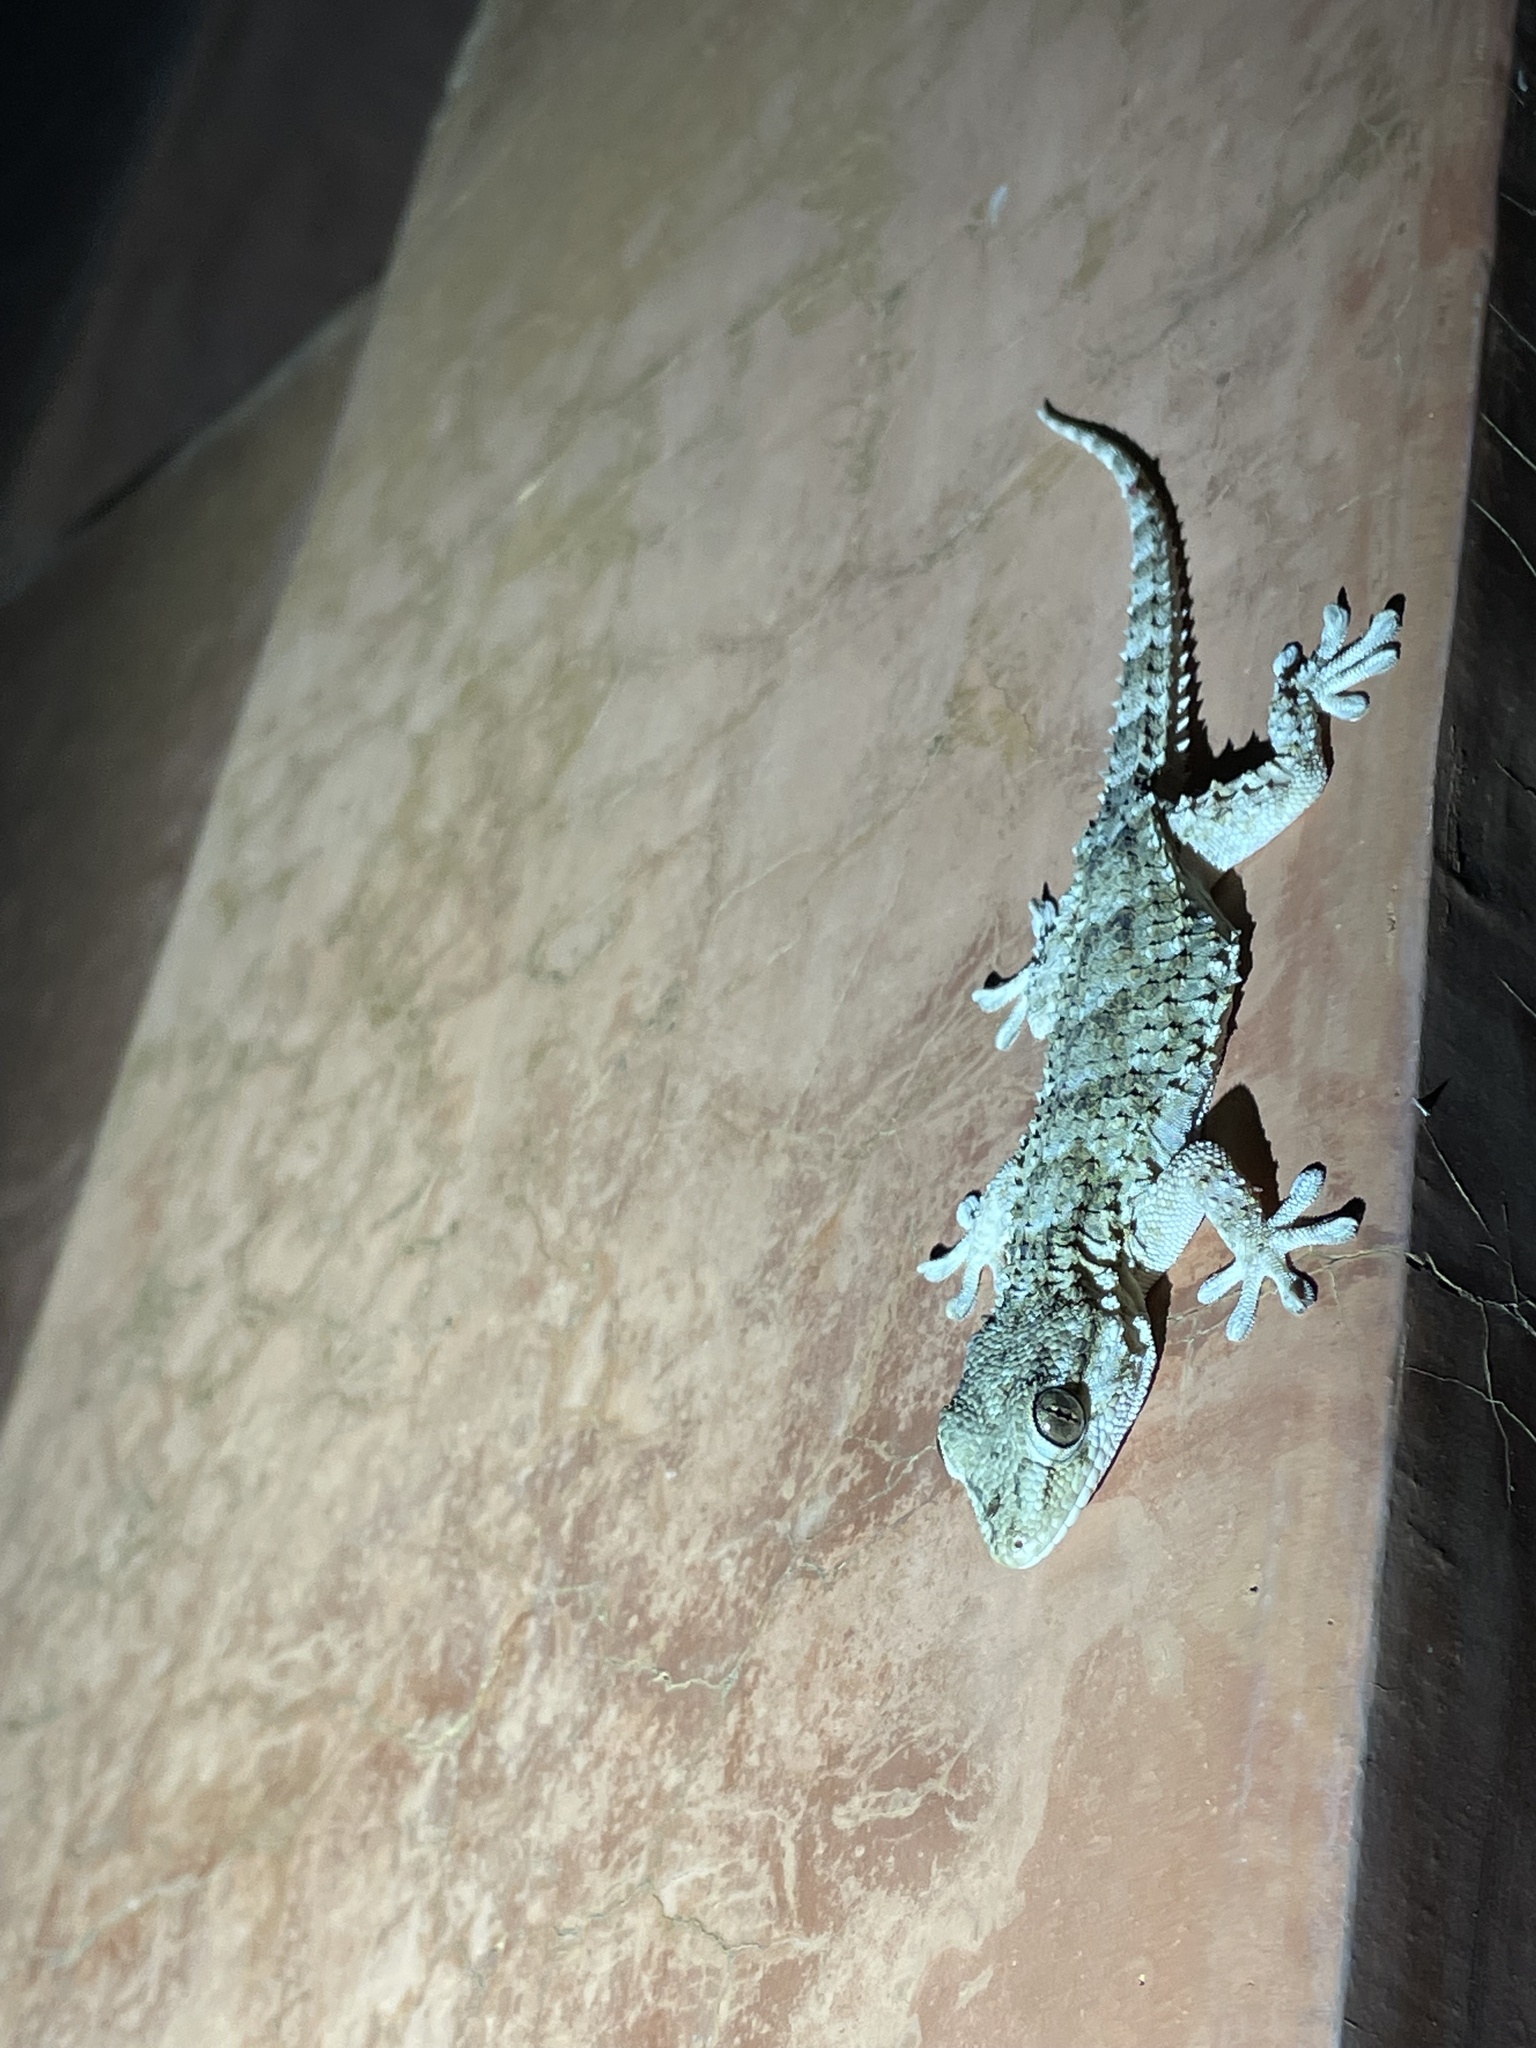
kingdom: Animalia
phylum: Chordata
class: Squamata
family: Phyllodactylidae
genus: Tarentola
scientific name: Tarentola mauritanica
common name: Moorish gecko
